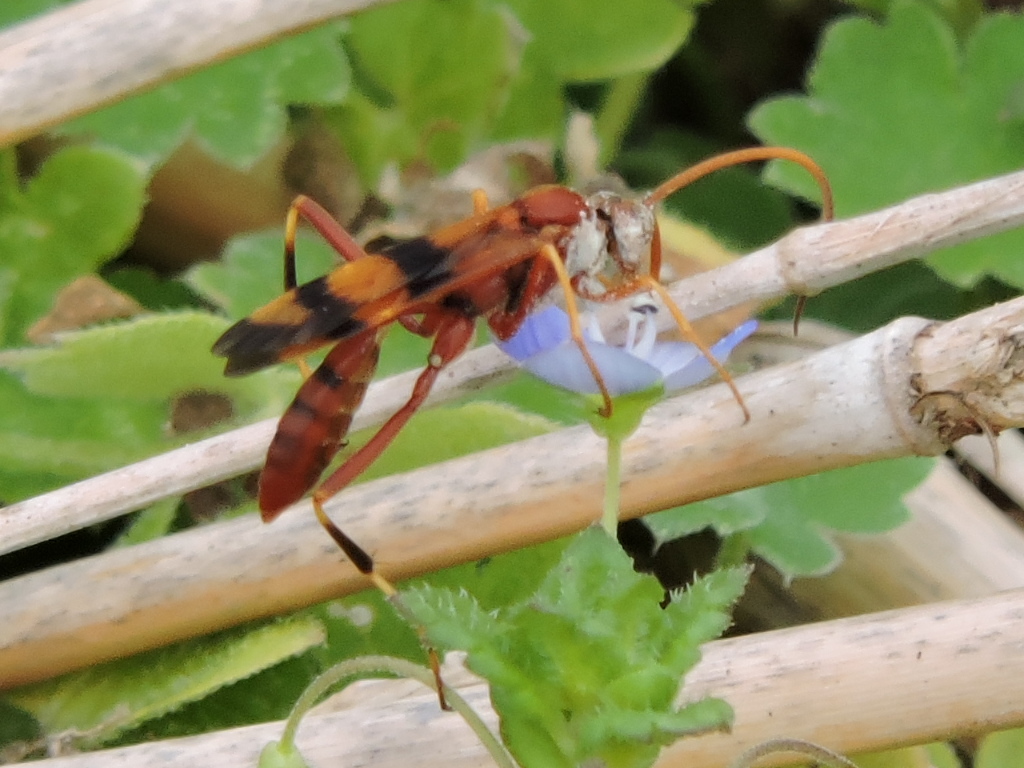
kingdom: Animalia
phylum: Arthropoda
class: Insecta
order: Hymenoptera
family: Ichneumonidae
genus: Compsocryptus
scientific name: Compsocryptus texensis
